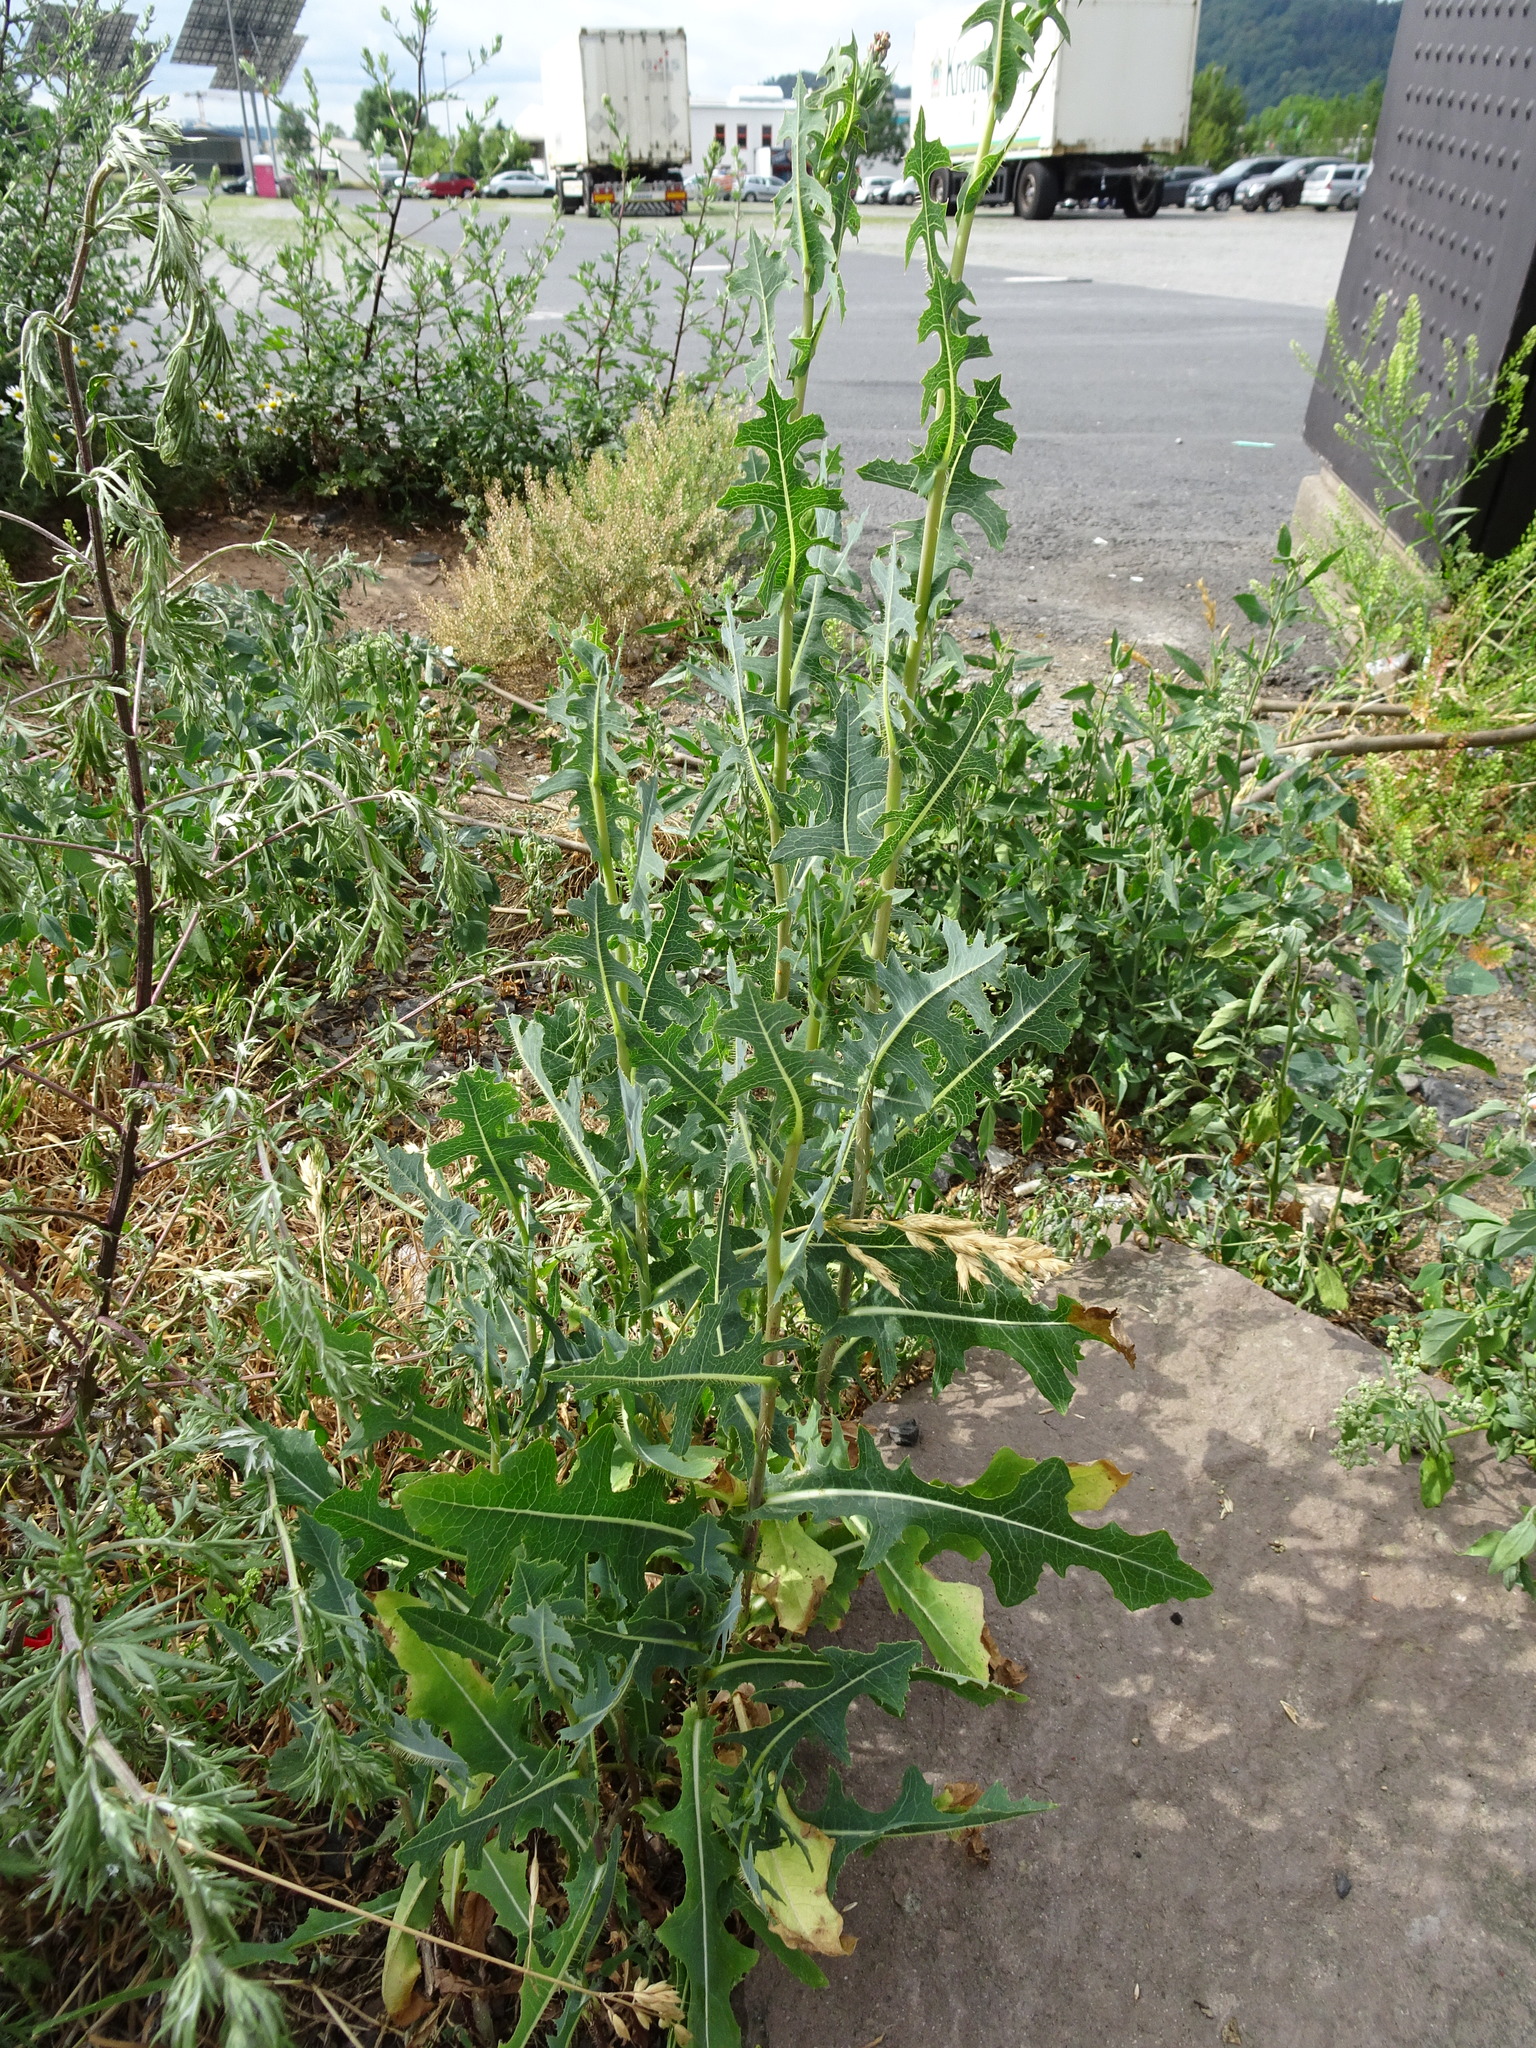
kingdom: Plantae
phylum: Tracheophyta
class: Magnoliopsida
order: Asterales
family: Asteraceae
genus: Lactuca
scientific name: Lactuca serriola
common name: Prickly lettuce
